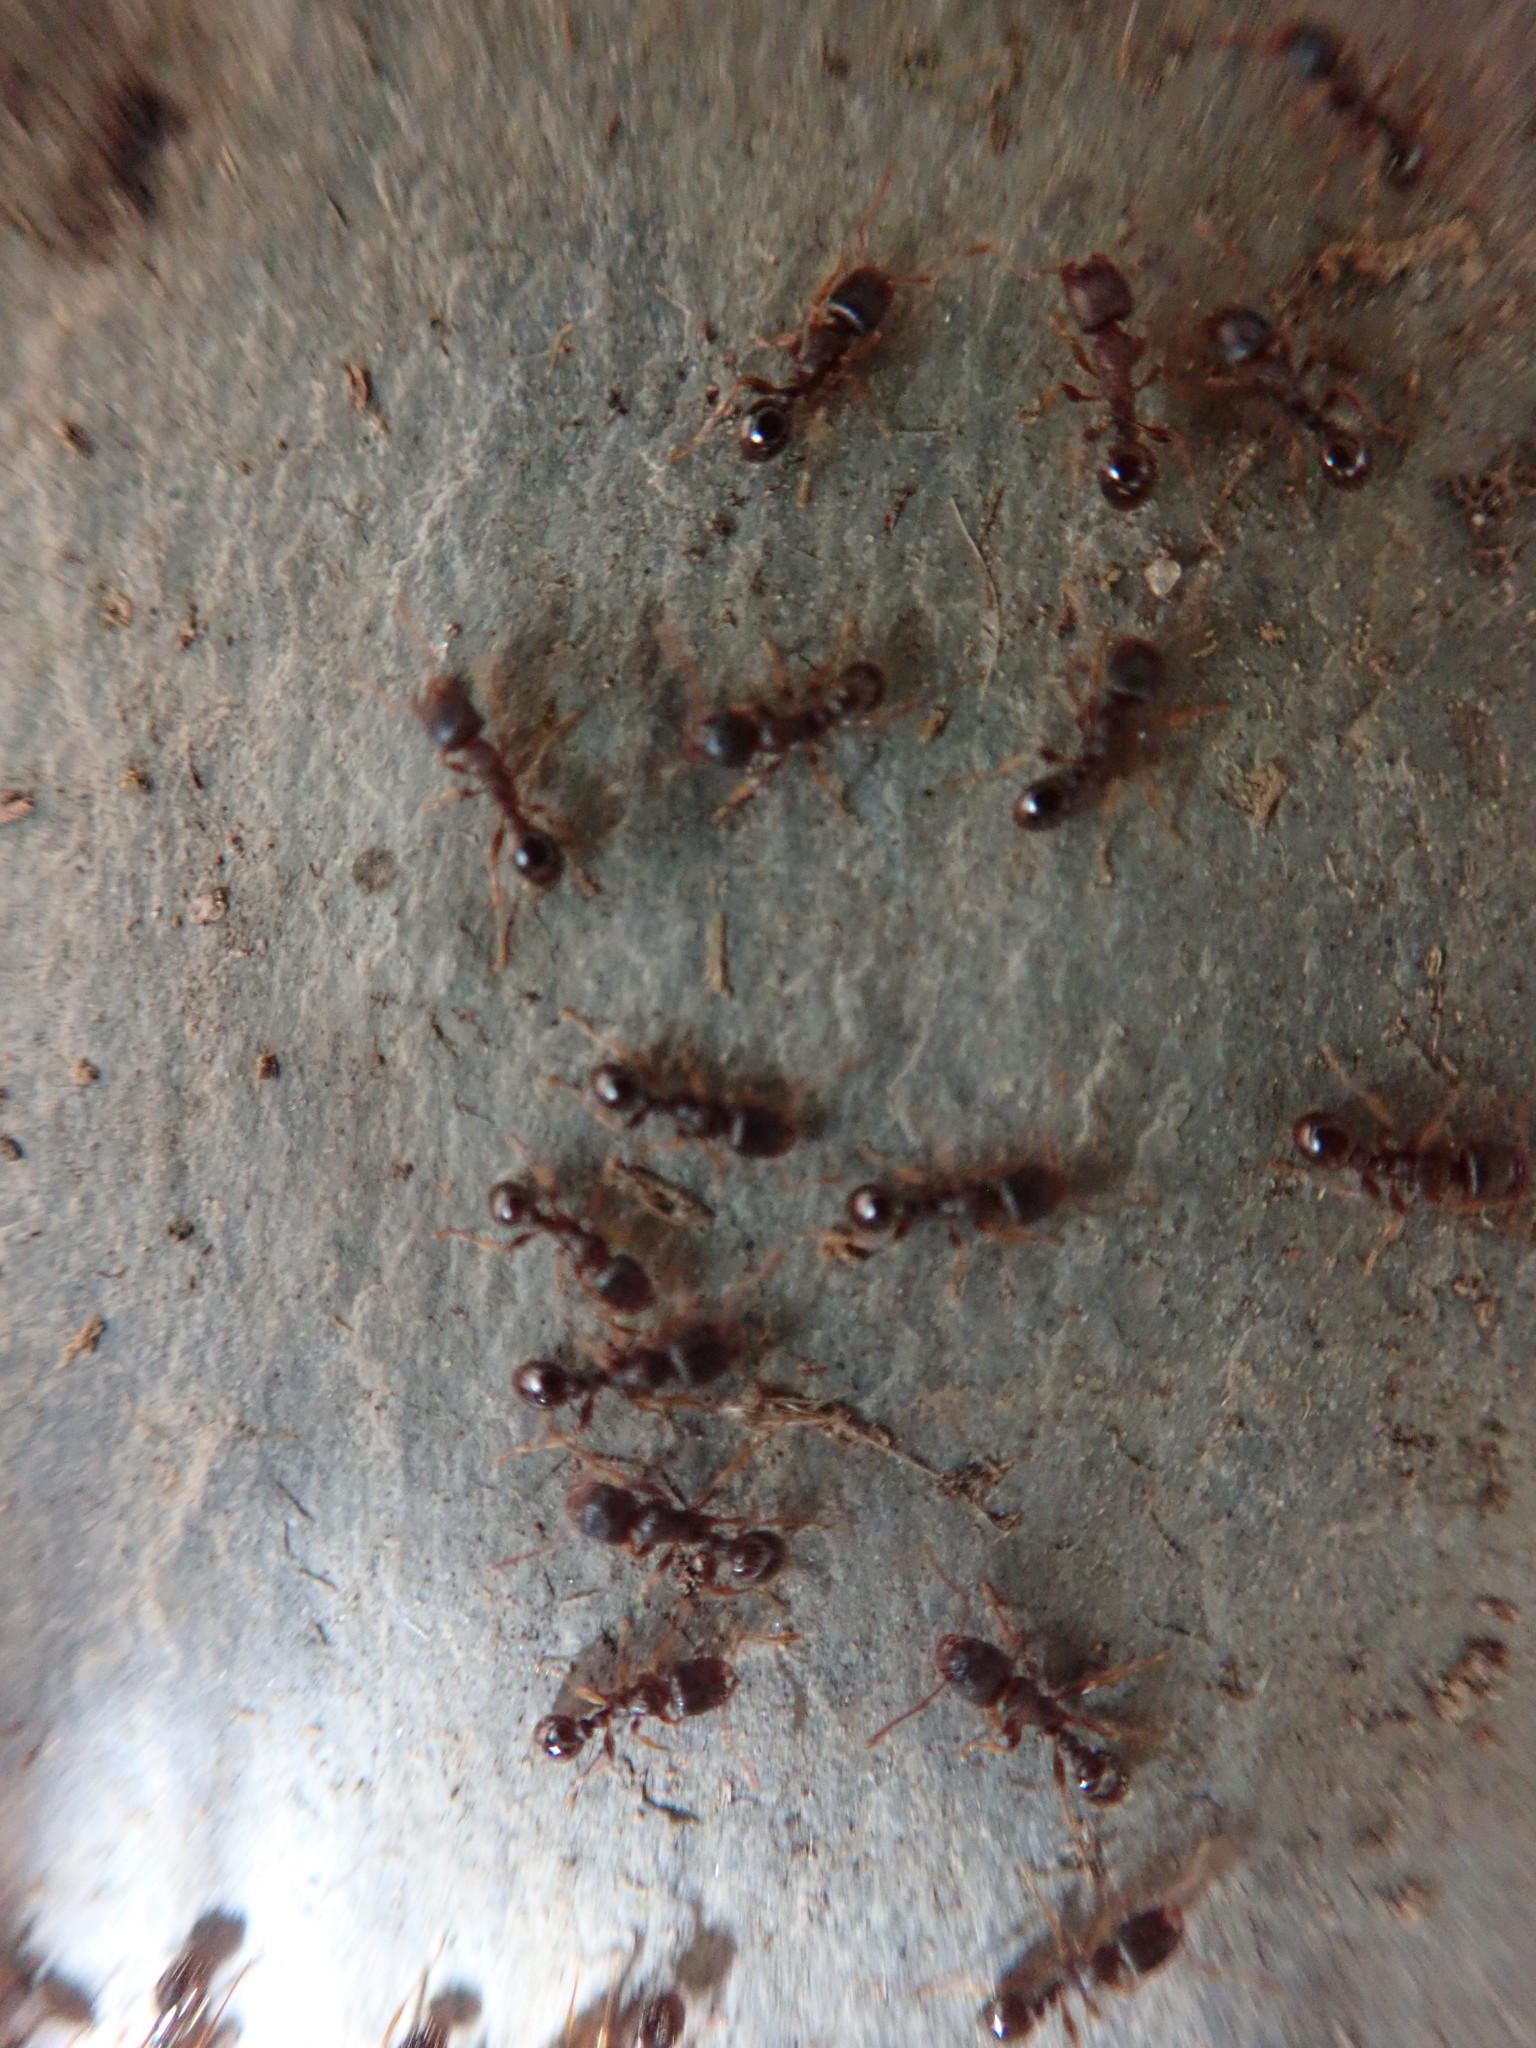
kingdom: Animalia
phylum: Arthropoda
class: Insecta
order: Hymenoptera
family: Formicidae
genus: Tetramorium
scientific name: Tetramorium immigrans
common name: Pavement ant
